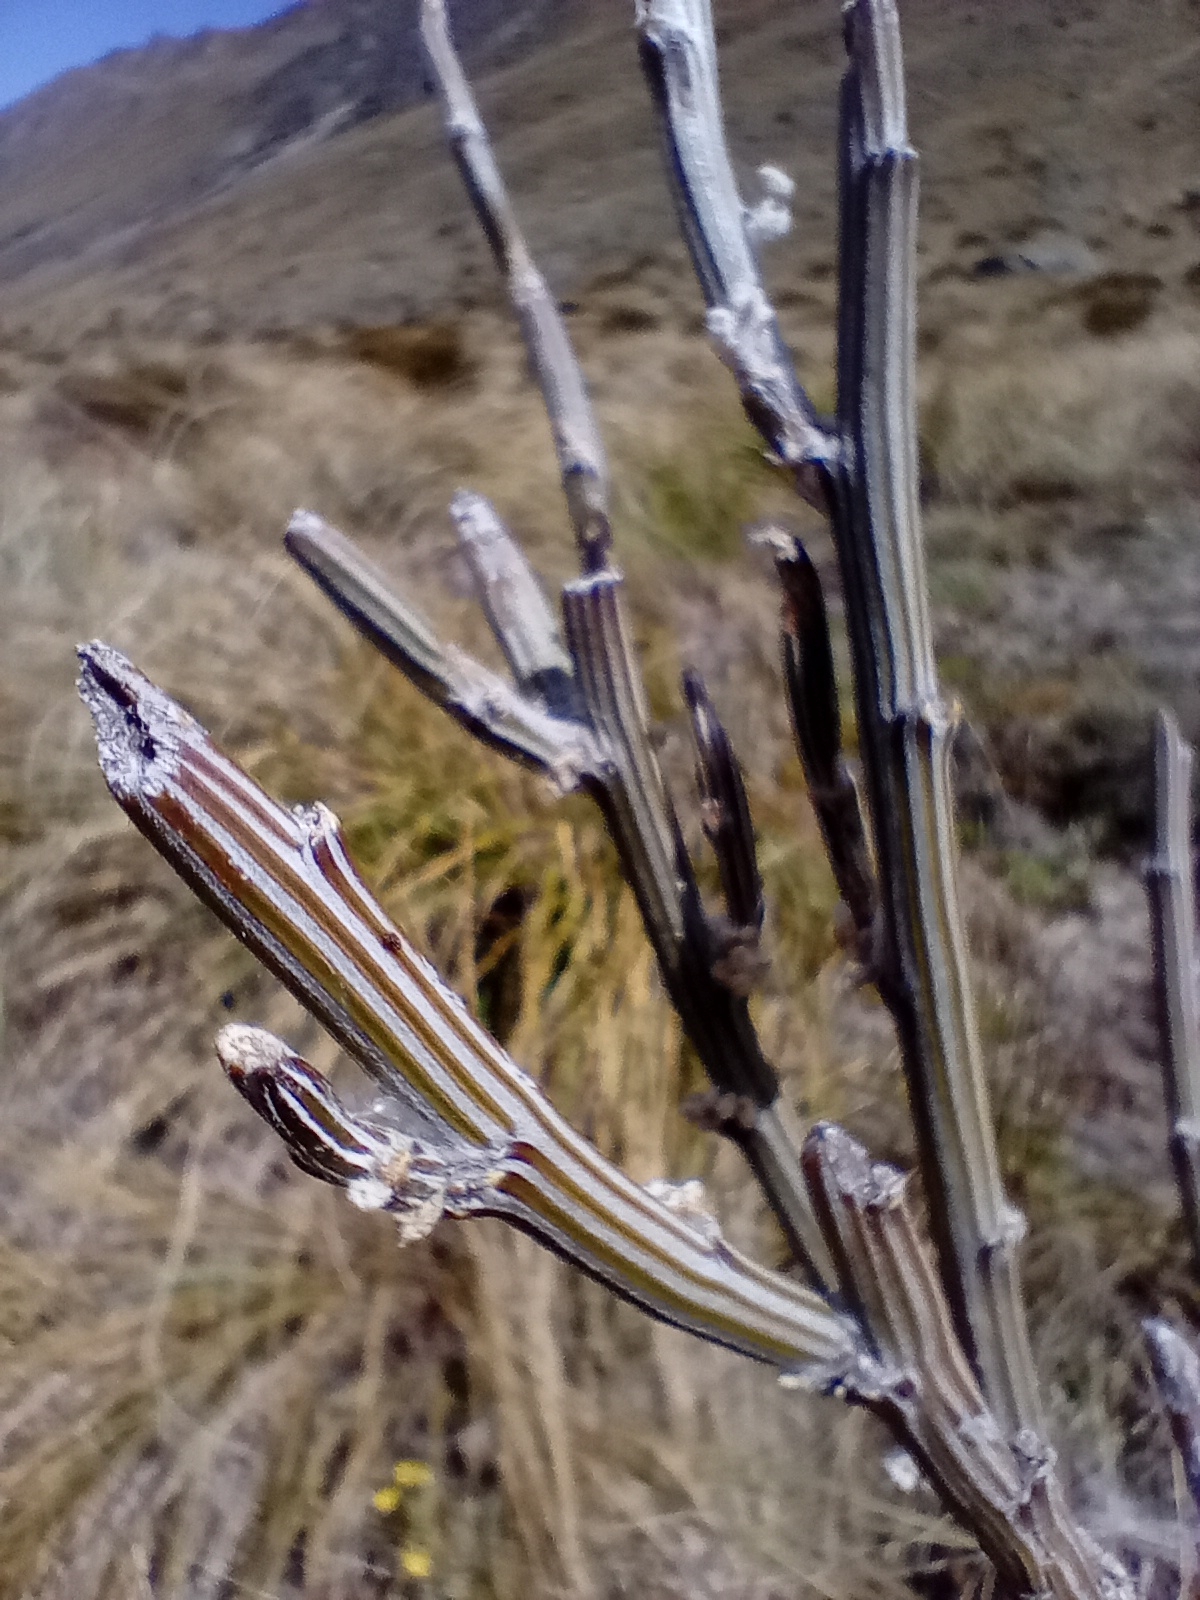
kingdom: Plantae
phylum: Tracheophyta
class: Magnoliopsida
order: Fabales
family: Fabaceae
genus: Carmichaelia
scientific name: Carmichaelia crassicaulis
